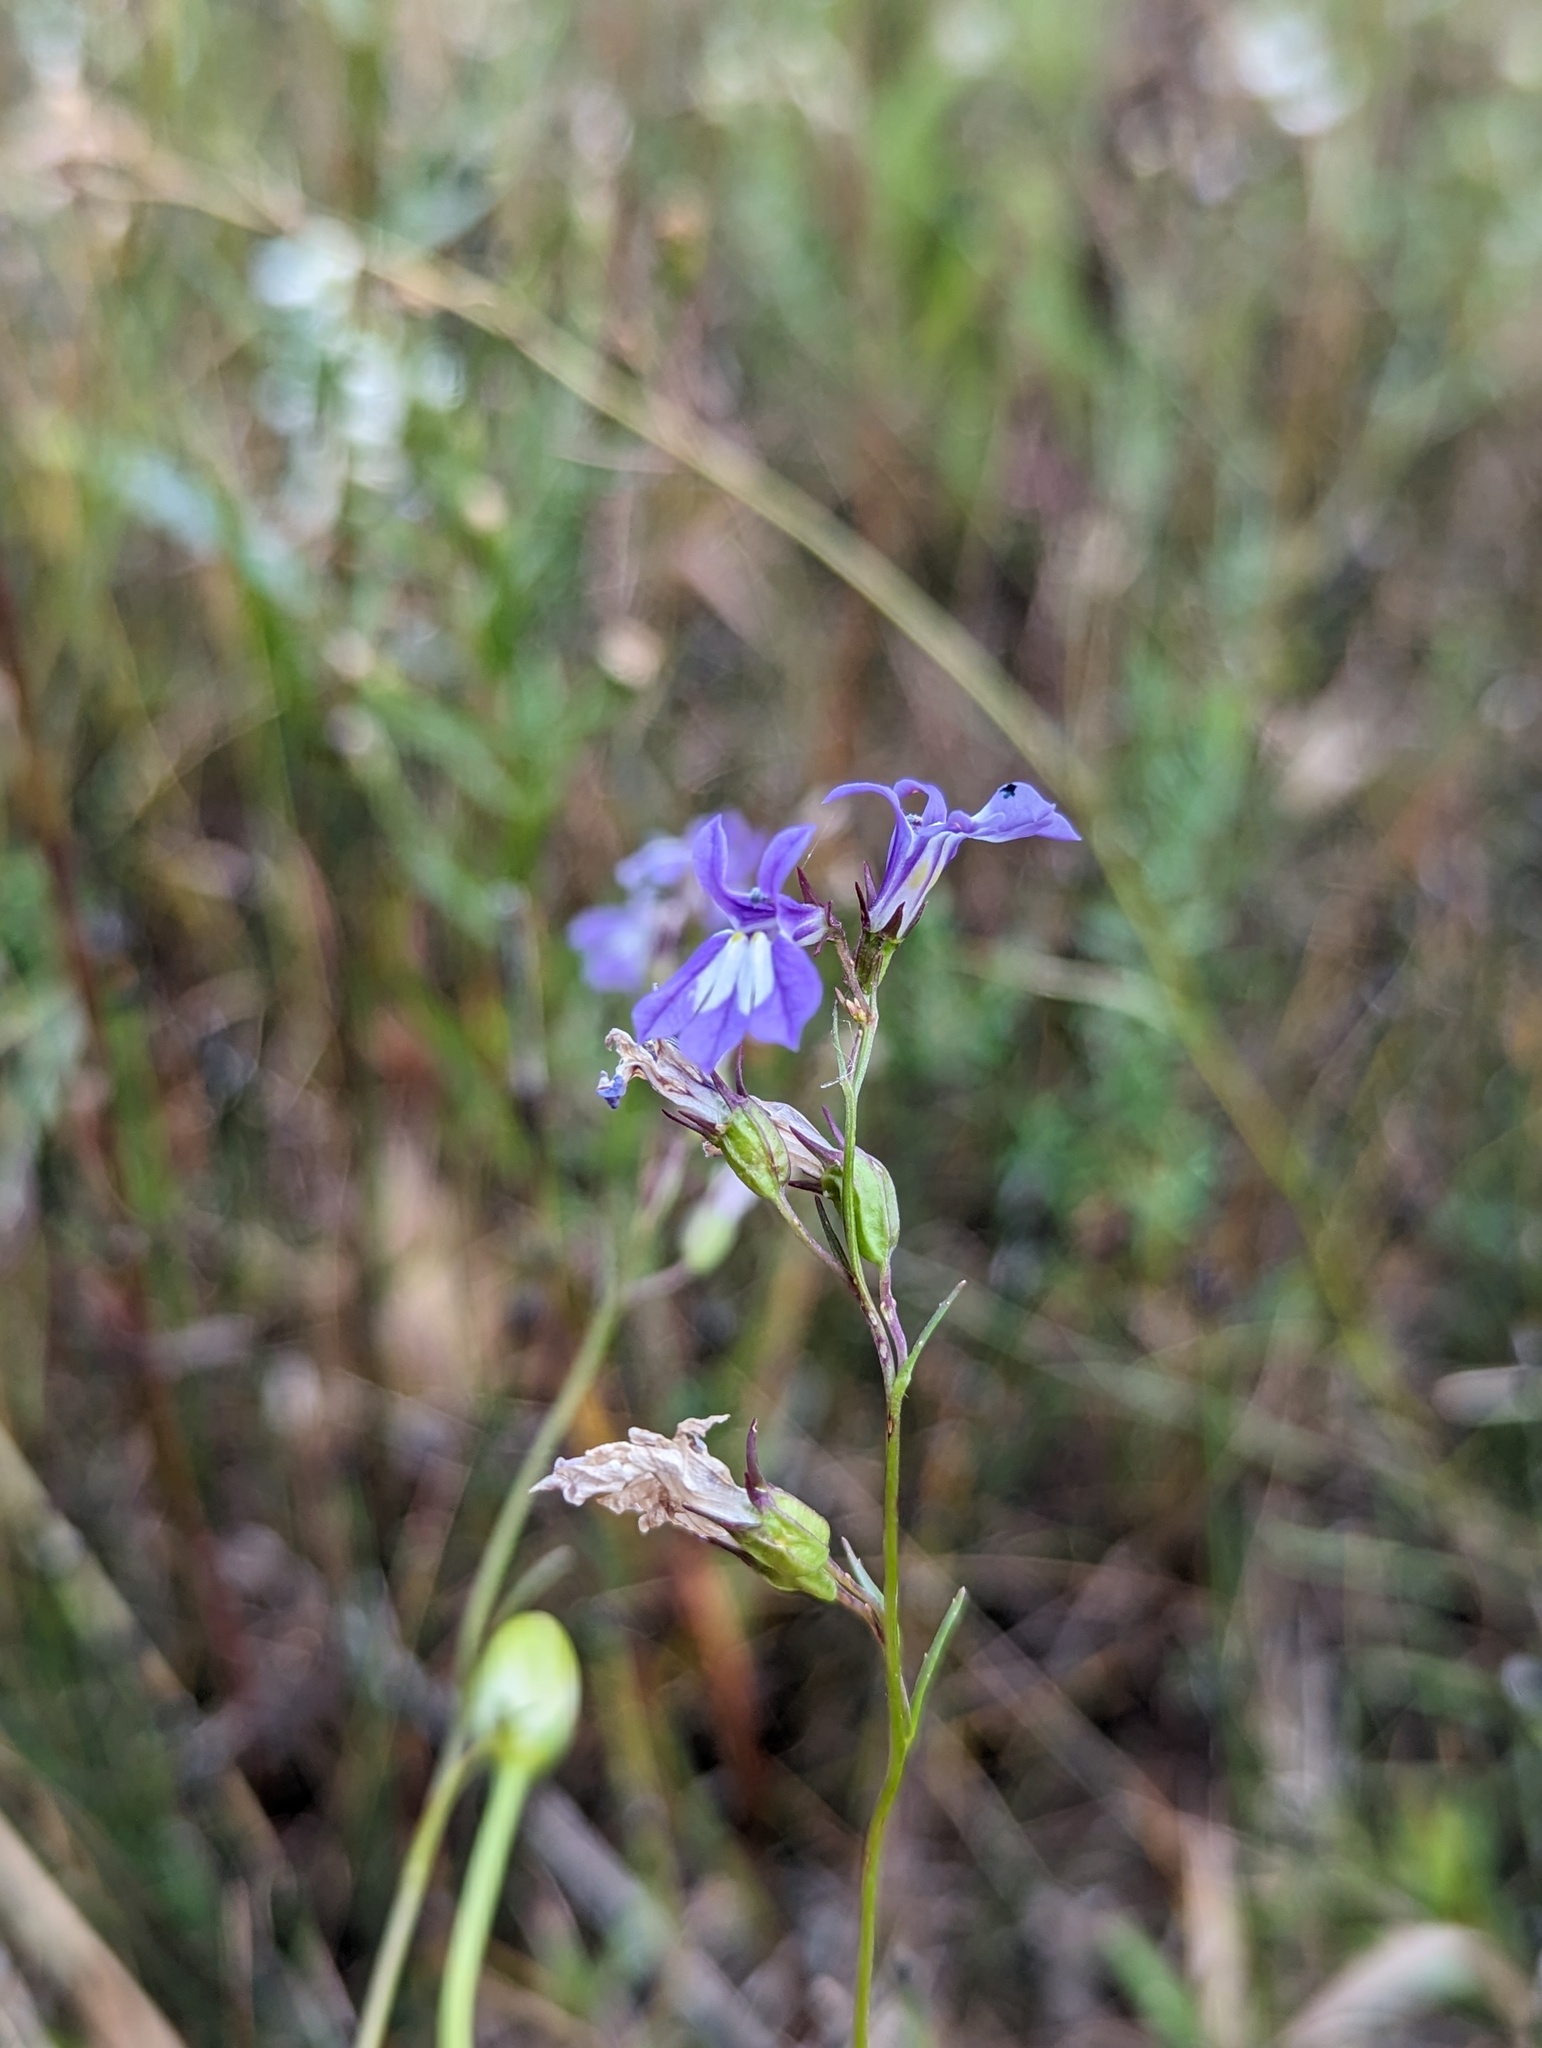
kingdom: Plantae
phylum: Tracheophyta
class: Magnoliopsida
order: Asterales
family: Campanulaceae
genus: Lobelia
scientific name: Lobelia kalmii
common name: Kalm's lobelia
